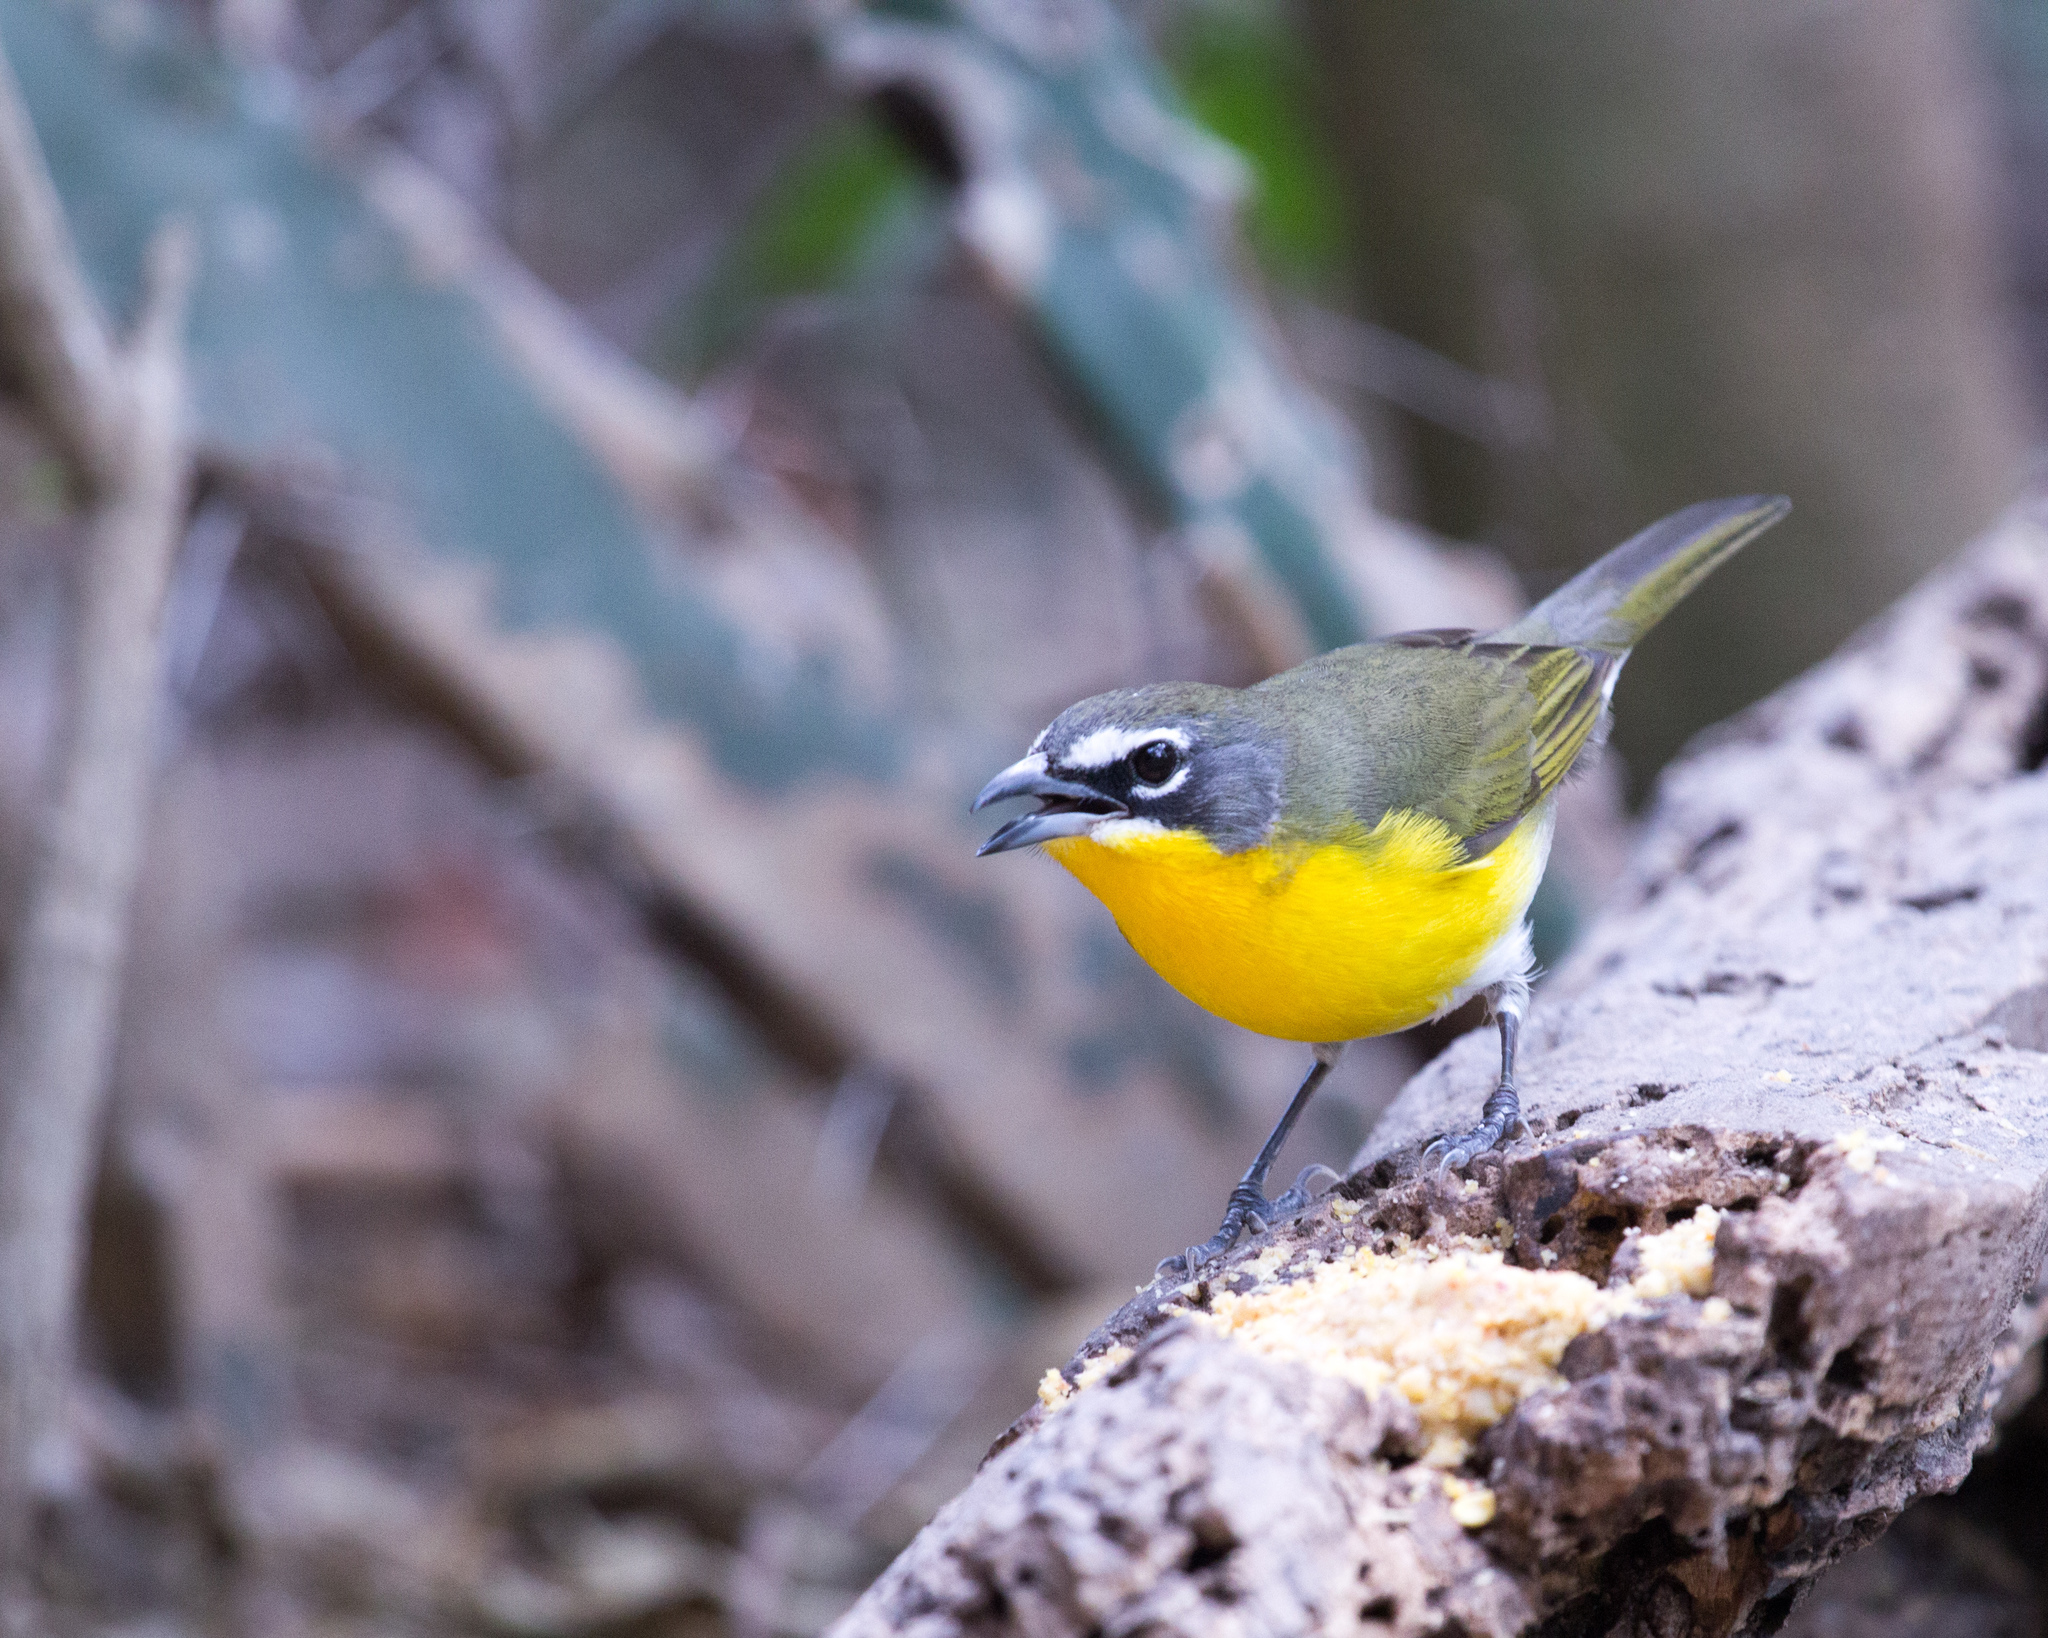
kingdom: Animalia
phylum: Chordata
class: Aves
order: Passeriformes
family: Parulidae
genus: Icteria
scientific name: Icteria virens
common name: Yellow-breasted chat
